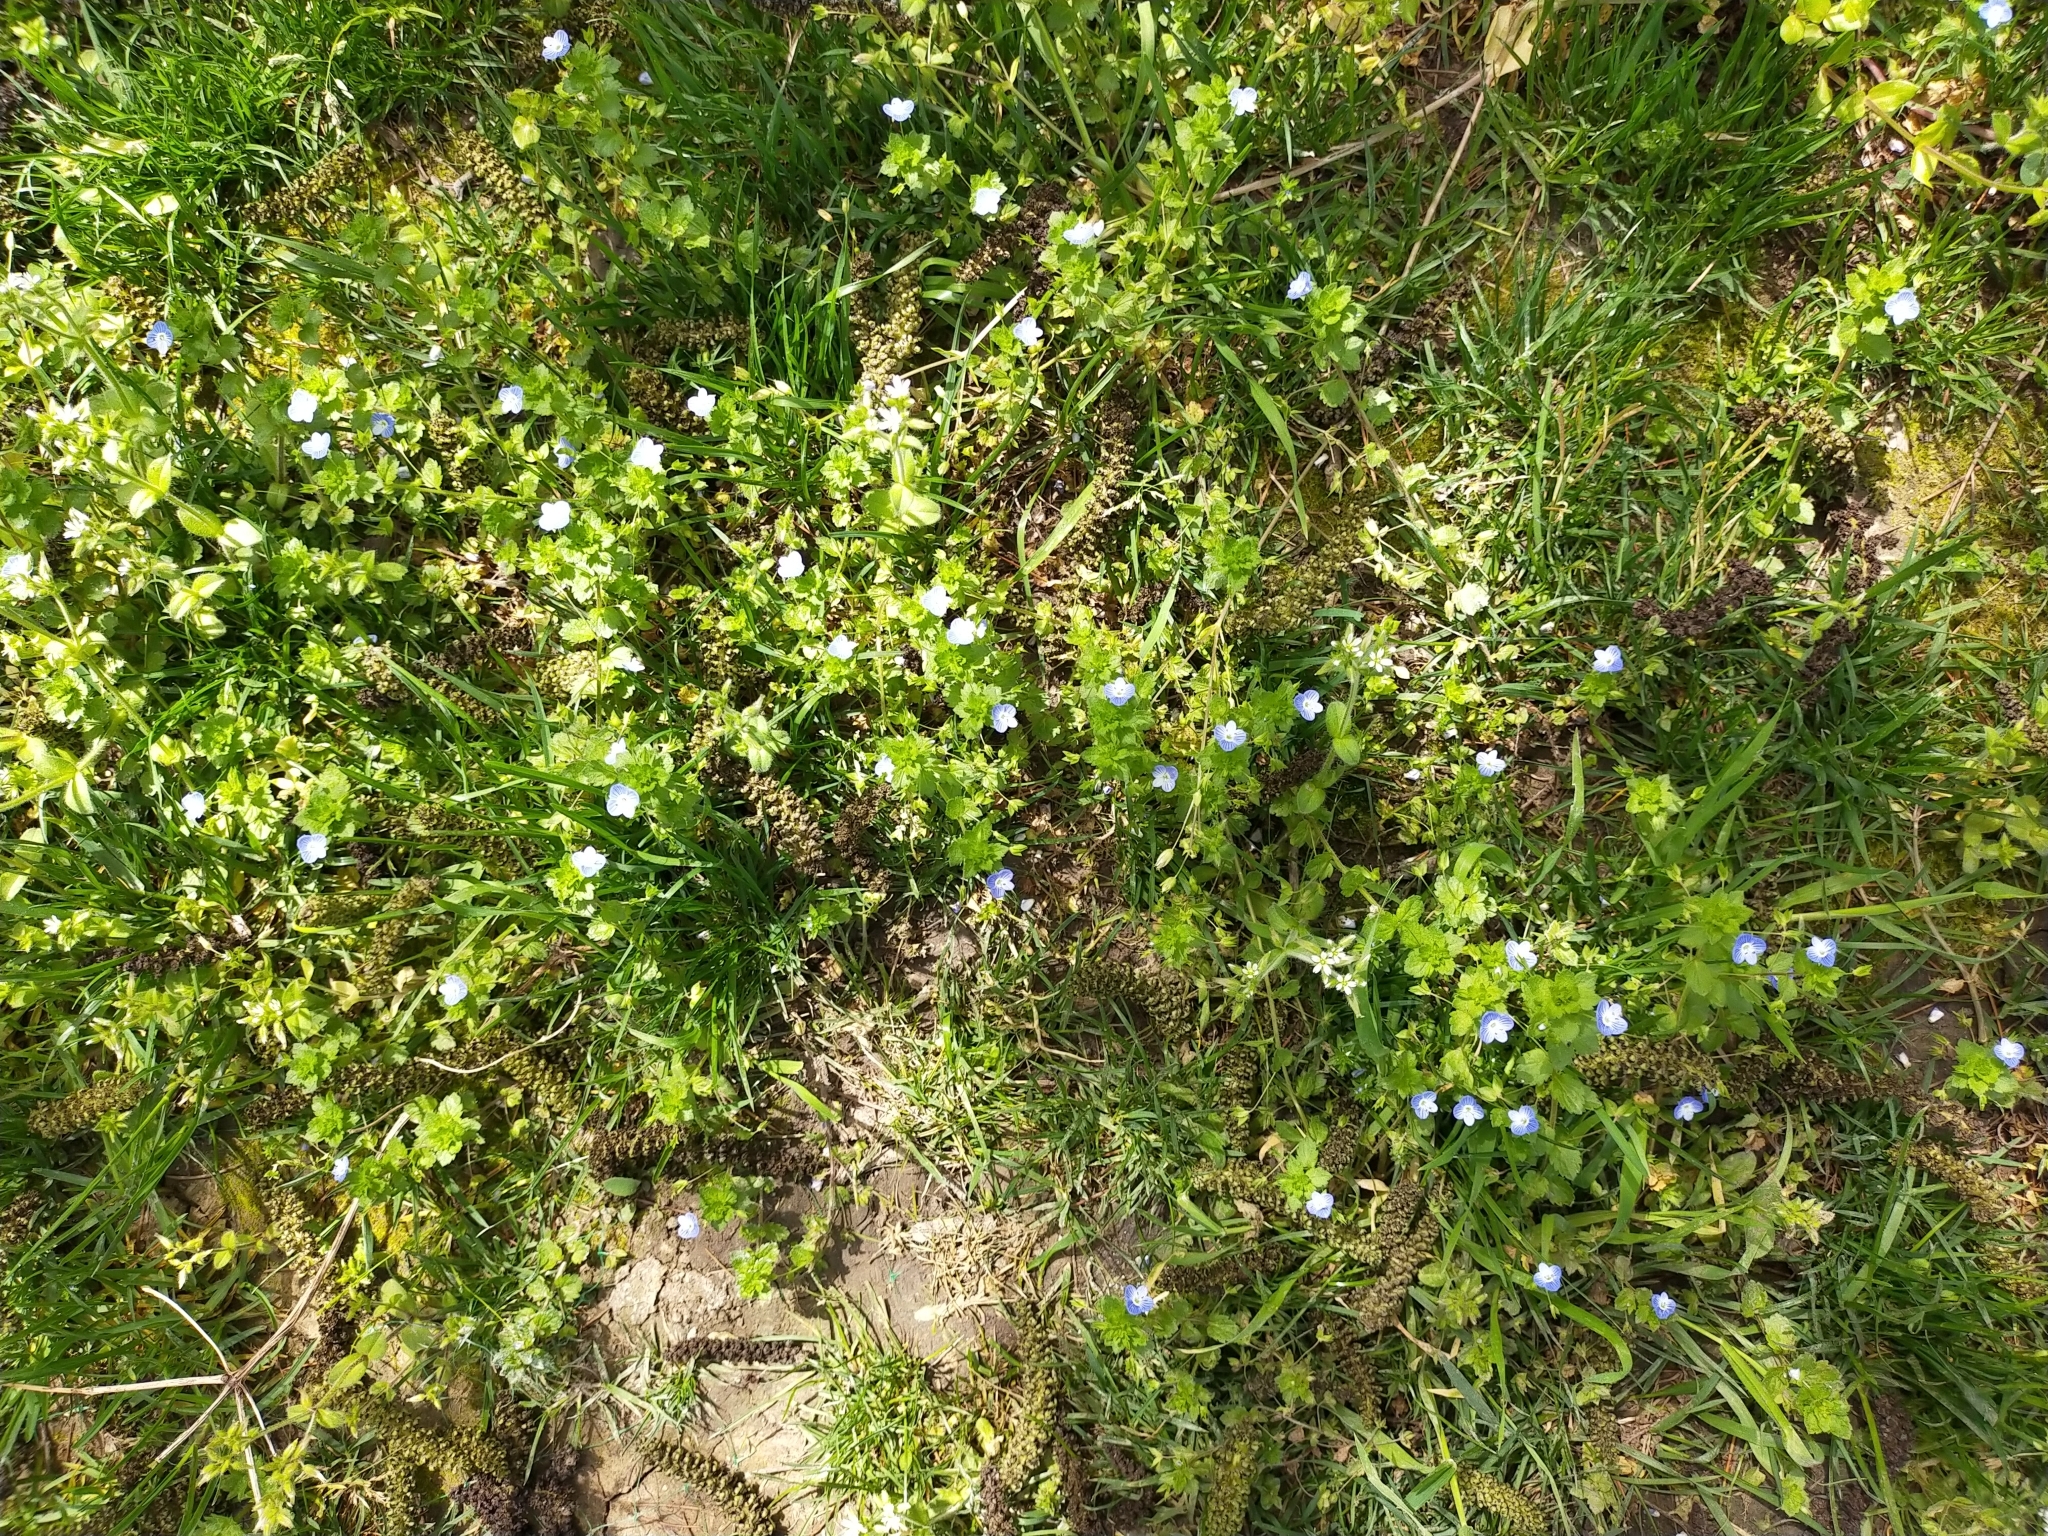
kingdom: Plantae
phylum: Tracheophyta
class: Magnoliopsida
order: Lamiales
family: Plantaginaceae
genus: Veronica
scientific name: Veronica persica
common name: Common field-speedwell
